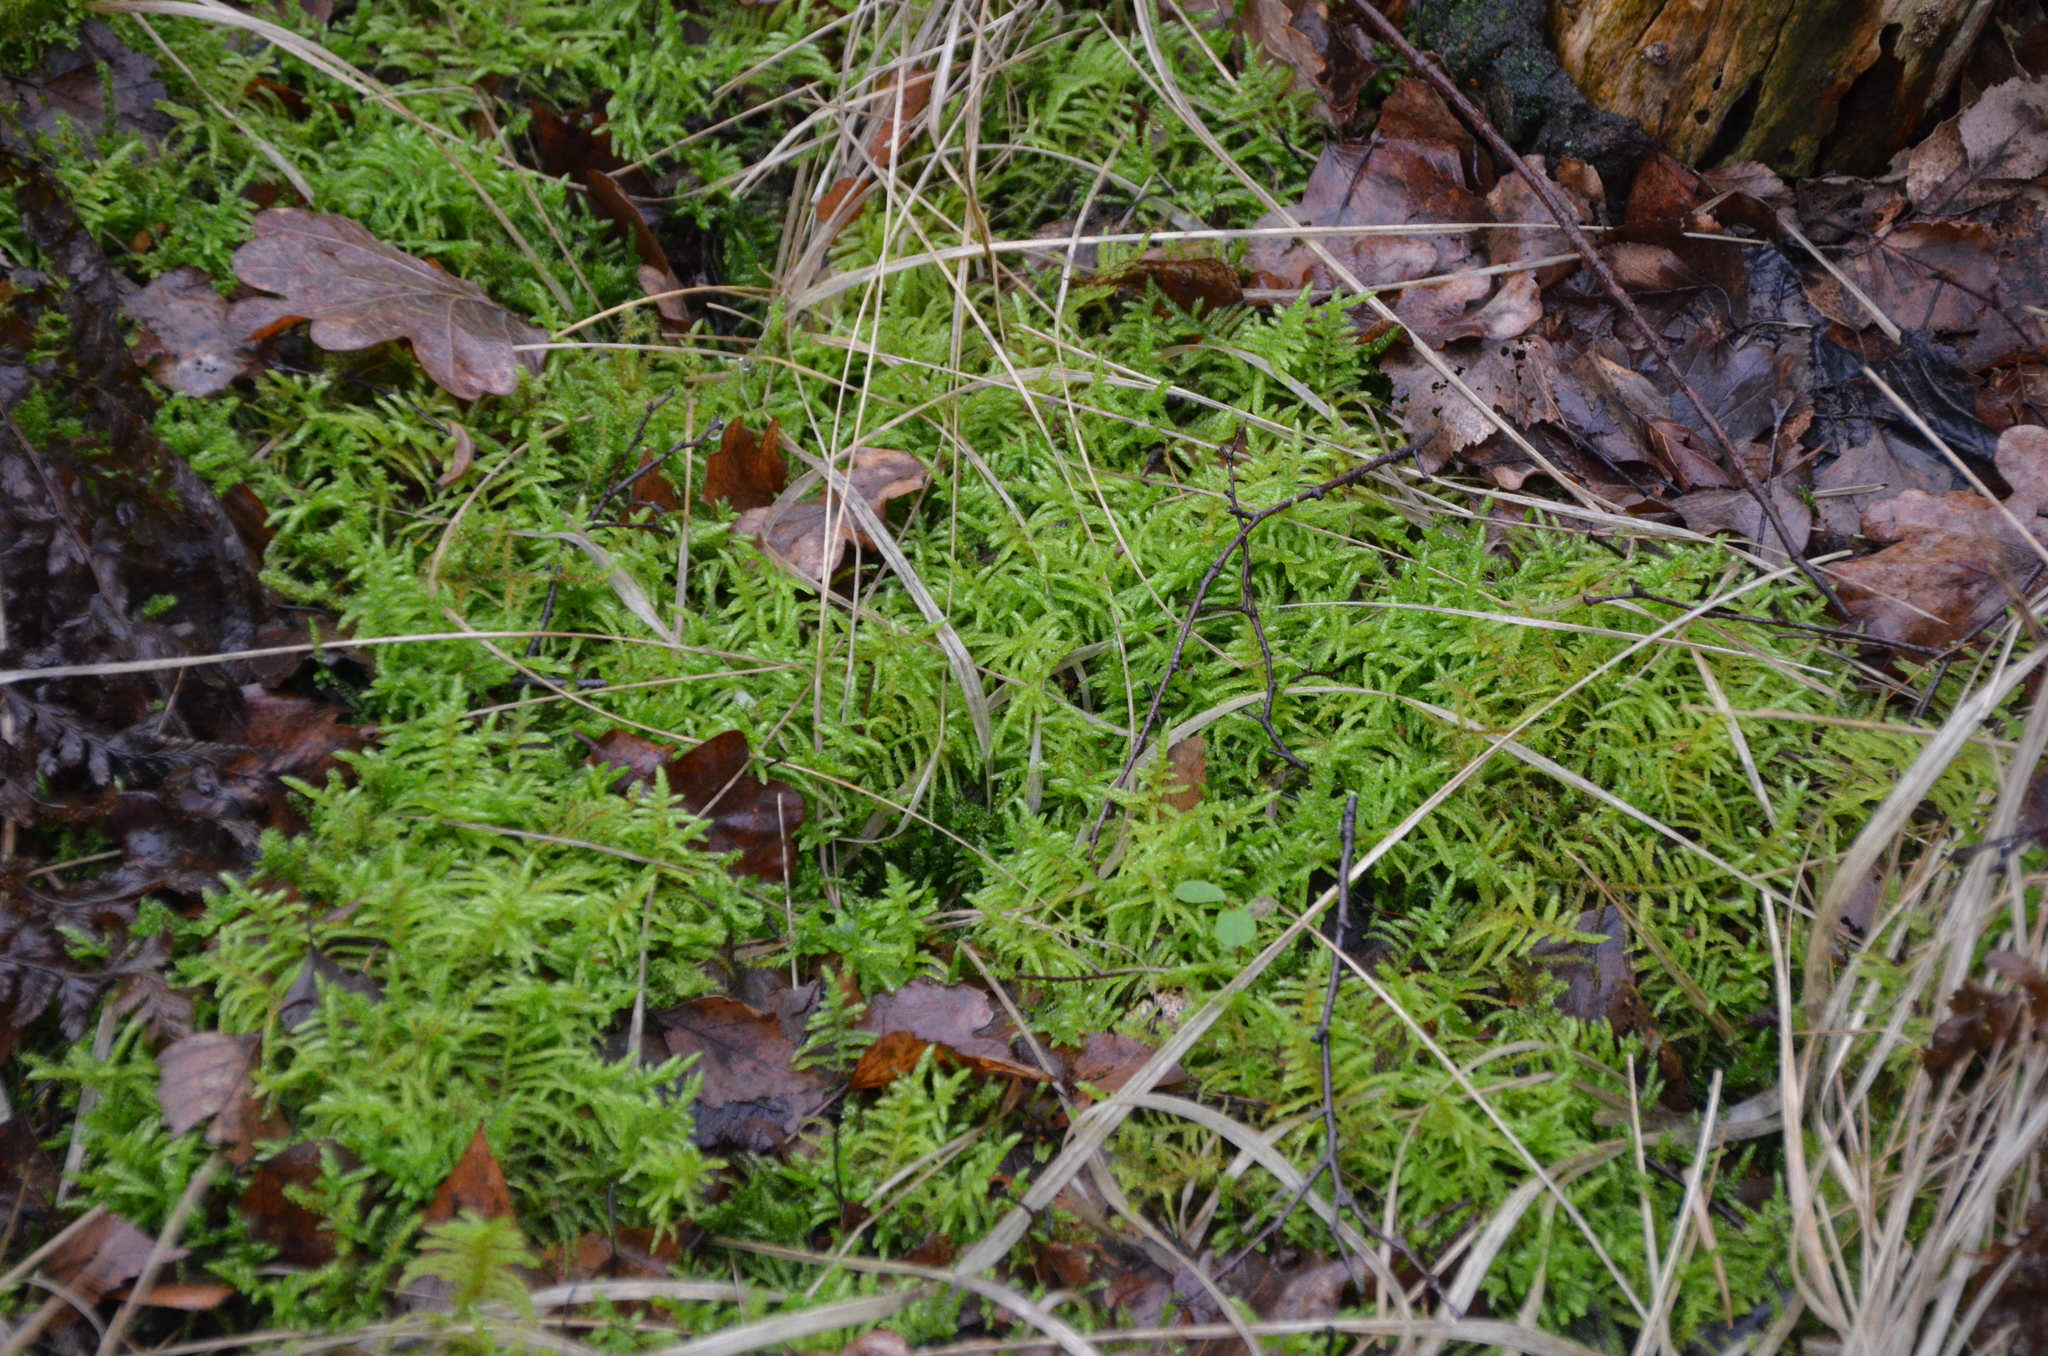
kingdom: Plantae
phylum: Bryophyta
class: Bryopsida
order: Hypnales
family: Brachytheciaceae
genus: Pseudoscleropodium
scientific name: Pseudoscleropodium purum
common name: Neat feather-moss
